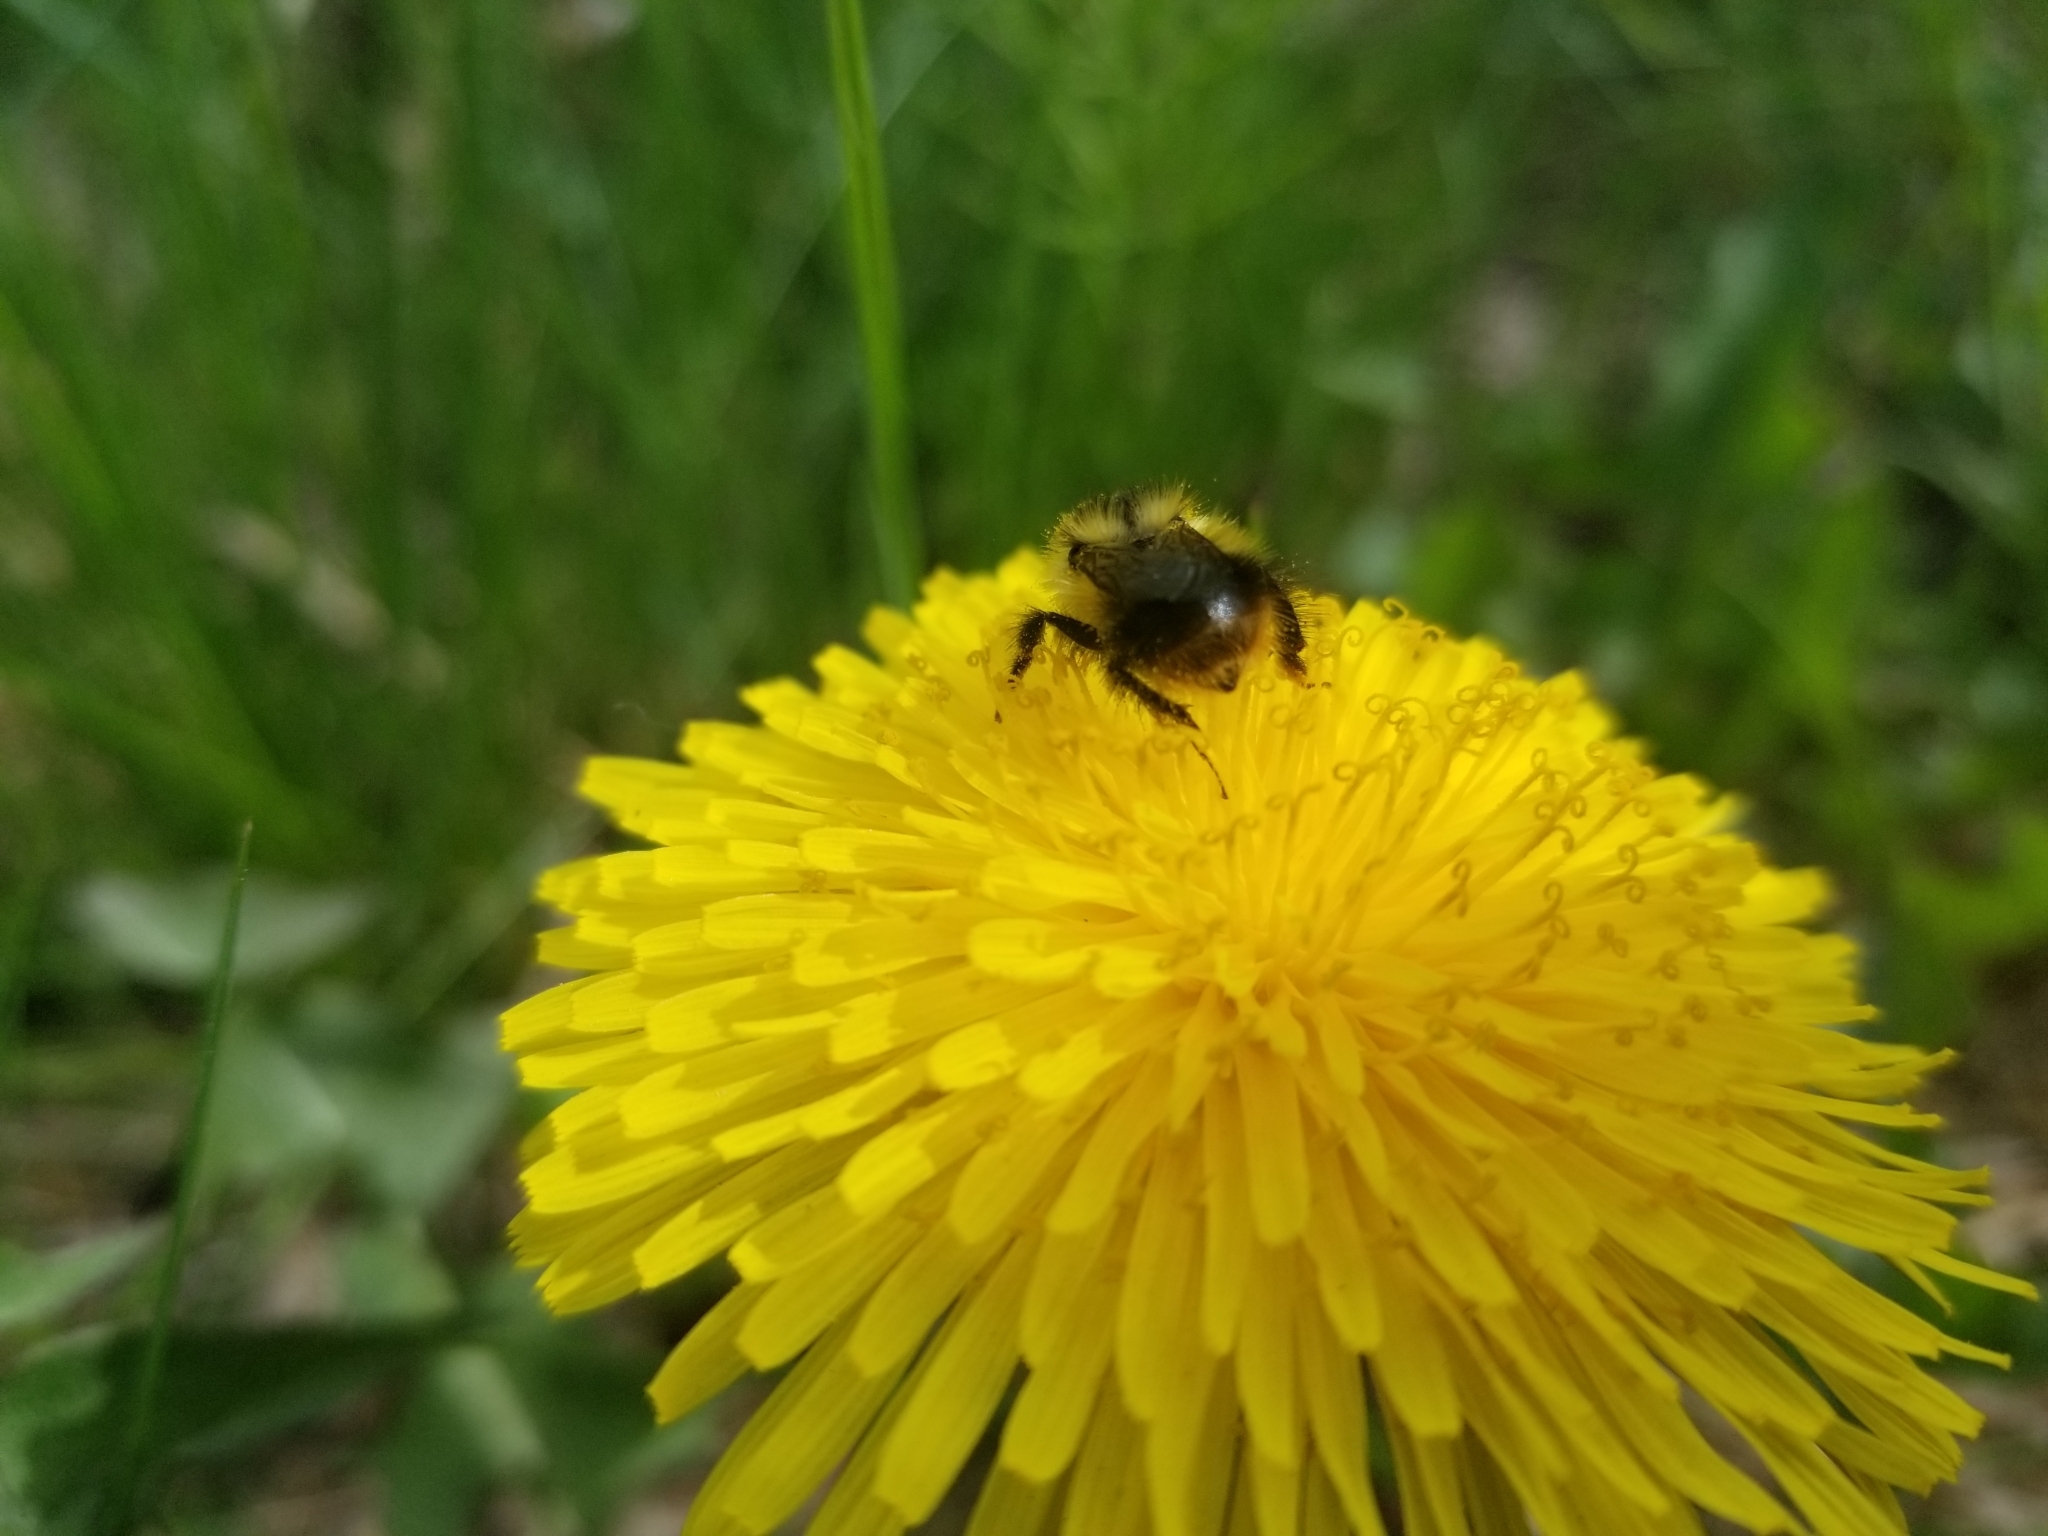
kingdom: Animalia
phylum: Arthropoda
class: Insecta
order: Hymenoptera
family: Apidae
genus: Bombus
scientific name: Bombus frigidus
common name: Frigid bumble bee
